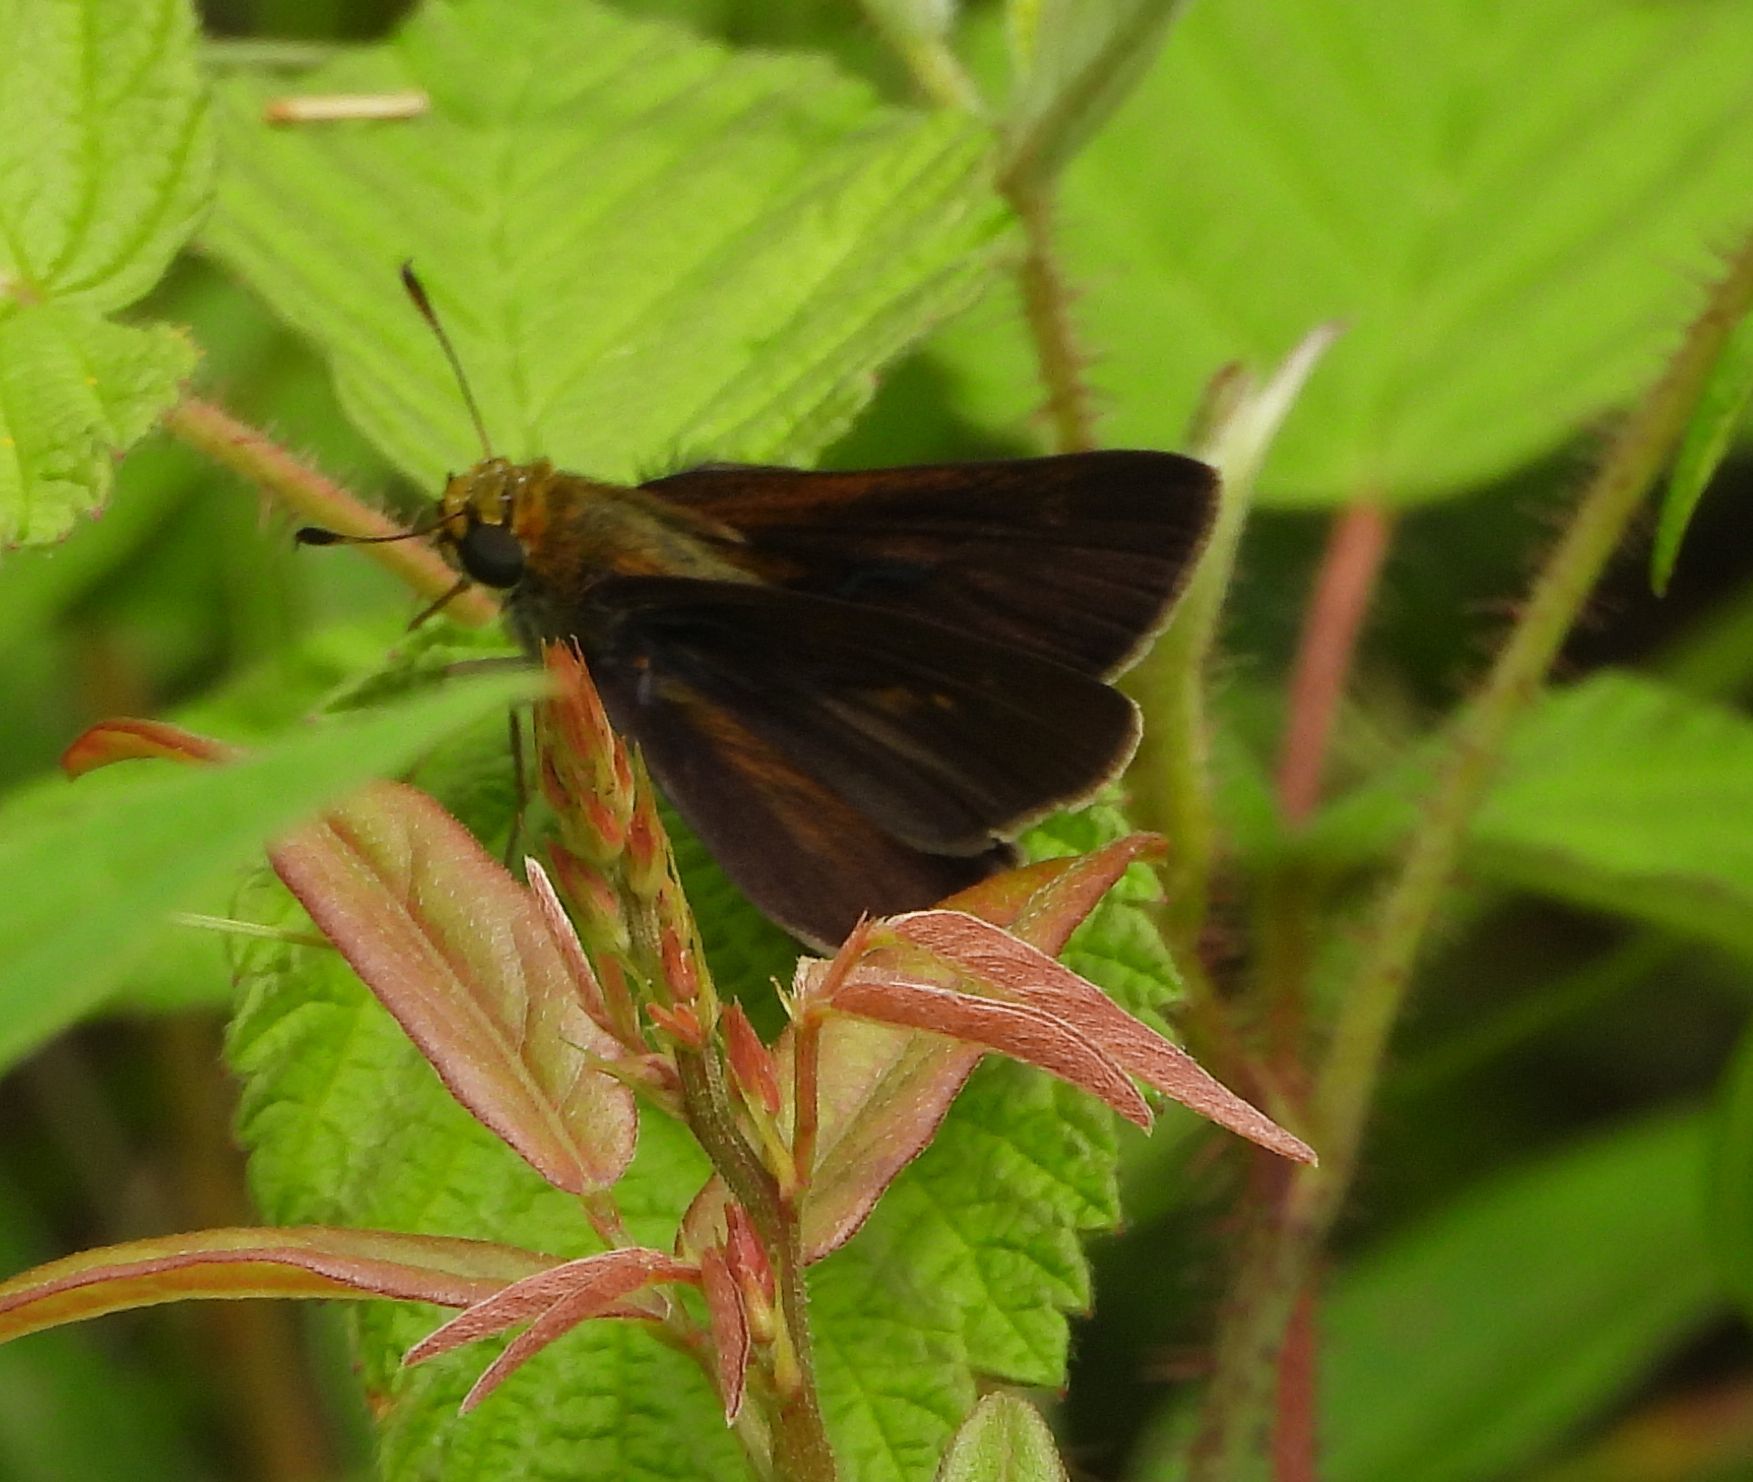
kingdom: Animalia
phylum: Arthropoda
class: Insecta
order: Lepidoptera
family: Hesperiidae
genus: Euphyes
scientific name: Euphyes vestris
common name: Dun skipper
